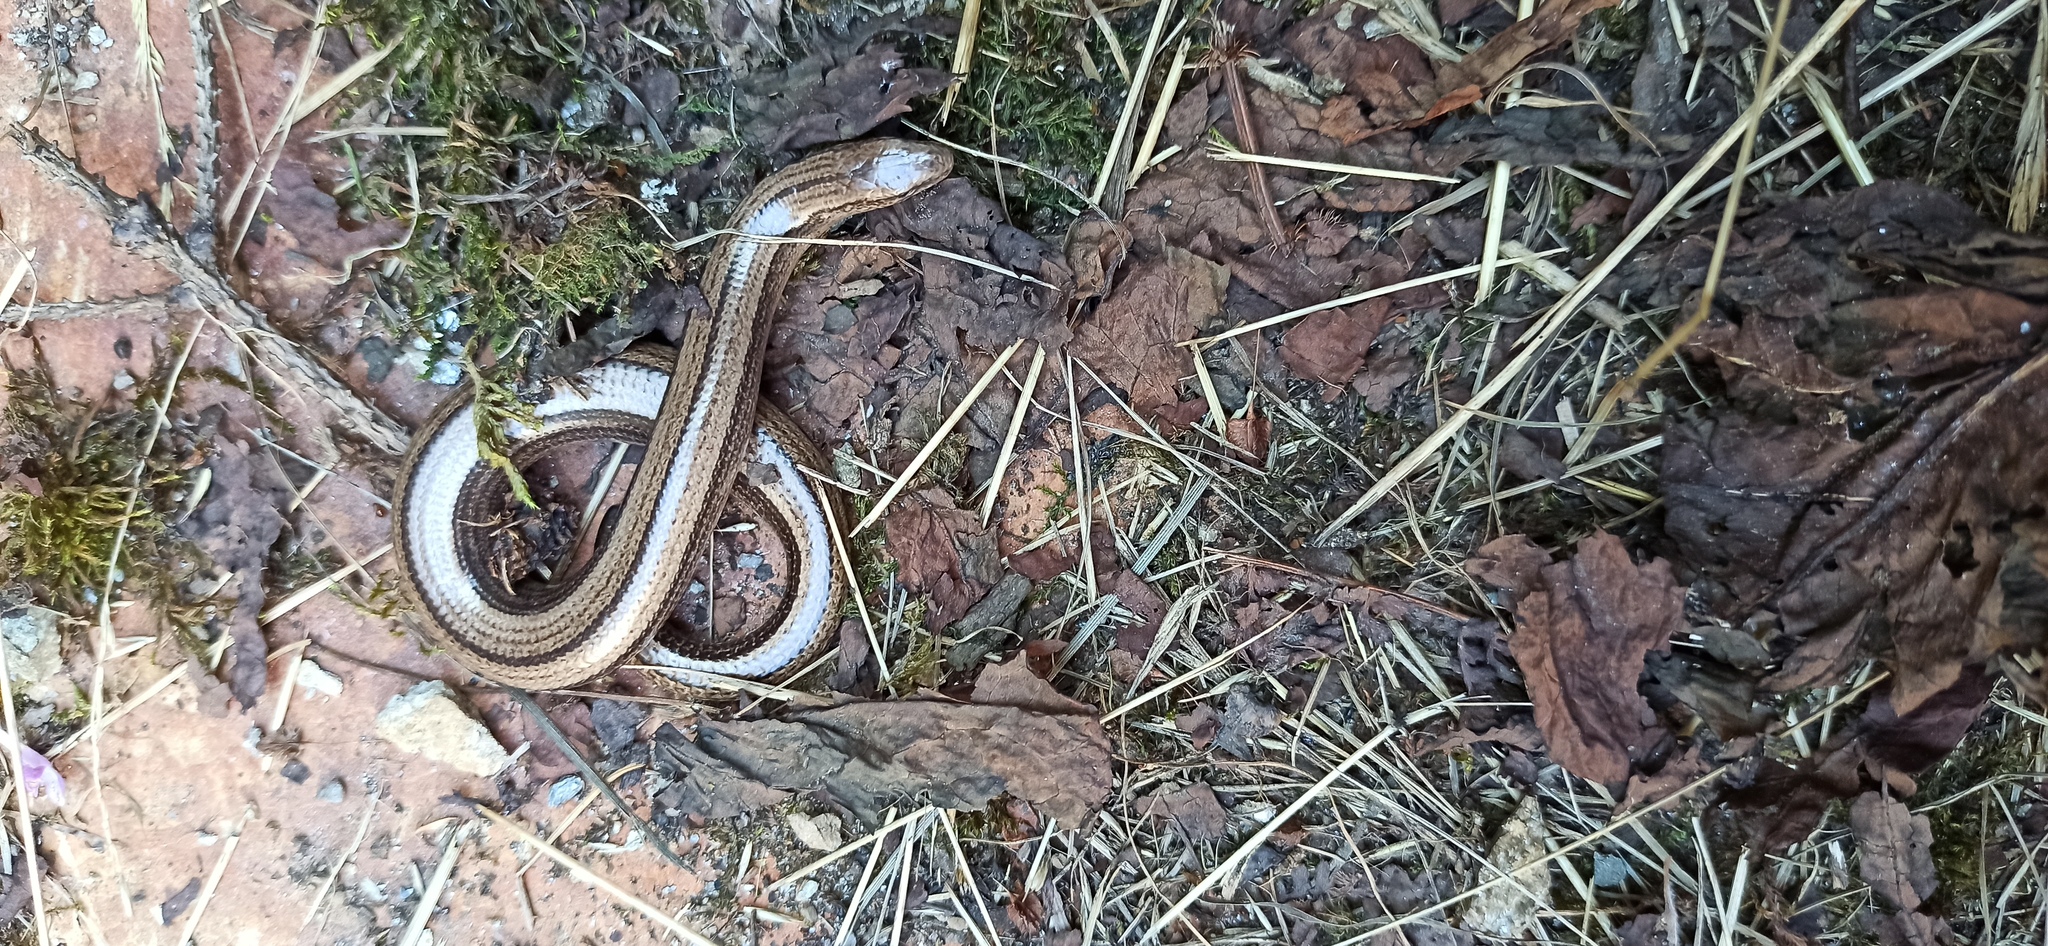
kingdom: Animalia
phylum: Chordata
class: Squamata
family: Anguidae
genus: Anguis
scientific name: Anguis veronensis
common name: Italian slow worm
